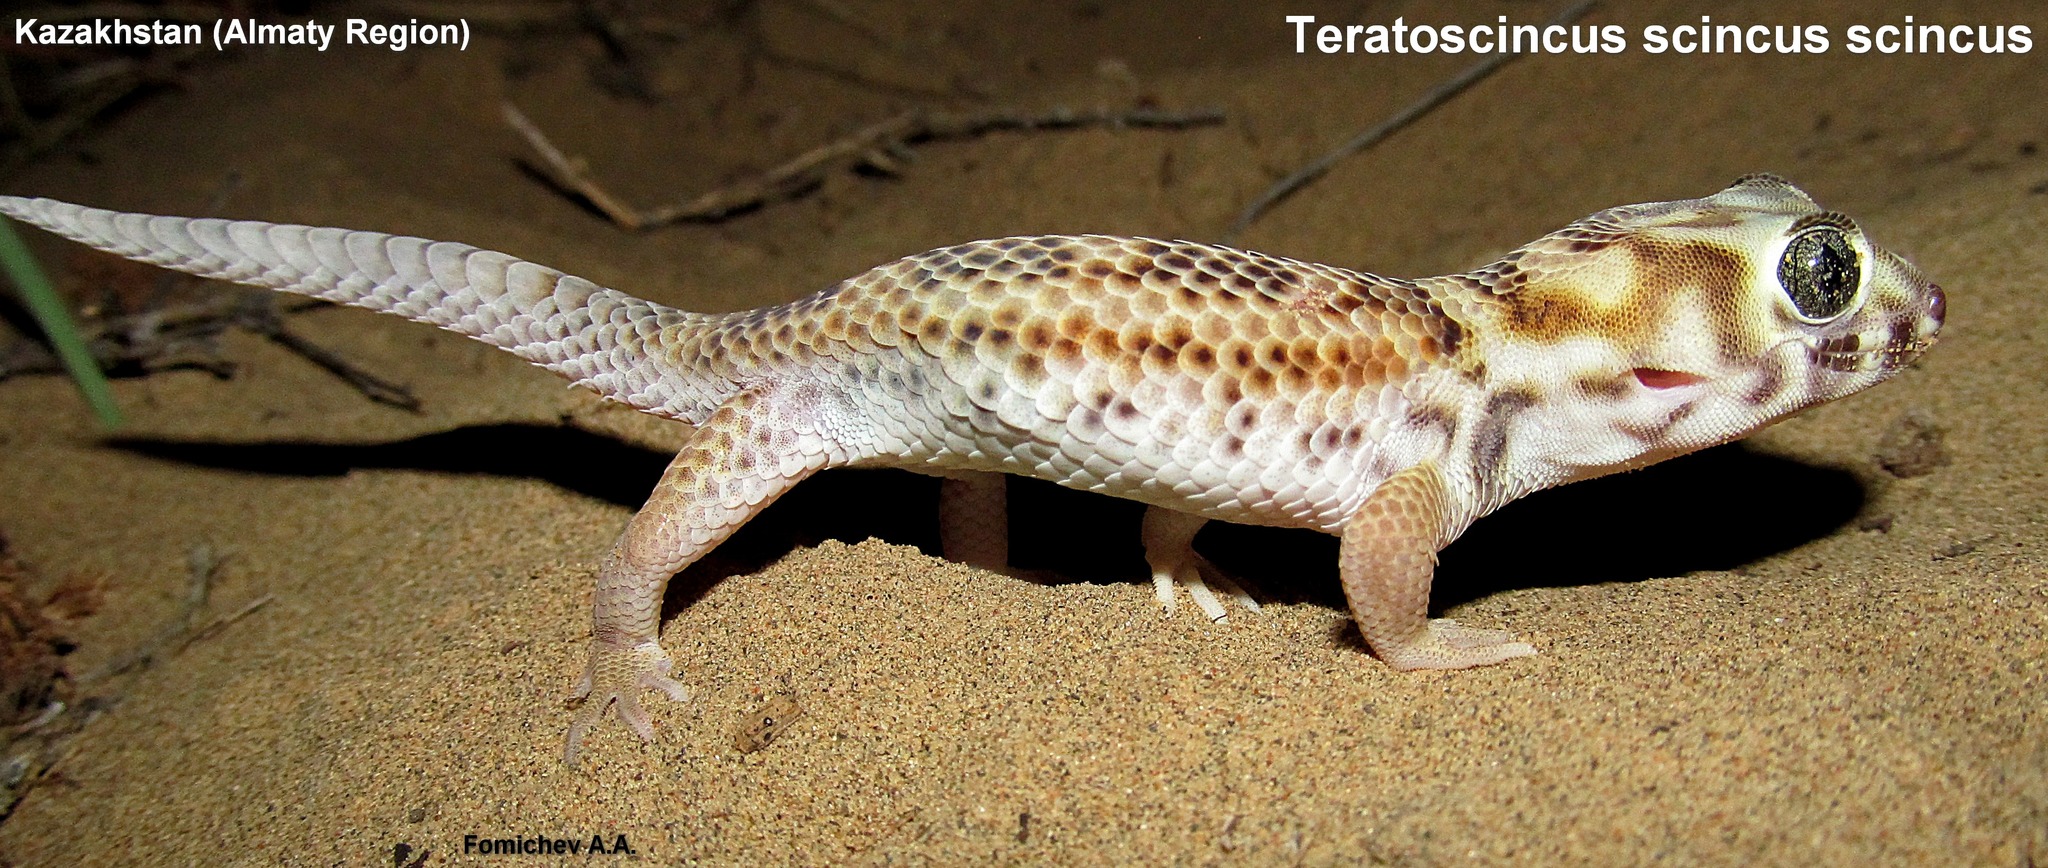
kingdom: Animalia
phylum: Chordata
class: Squamata
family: Sphaerodactylidae
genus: Teratoscincus
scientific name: Teratoscincus scincus
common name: Common wonder gecko
